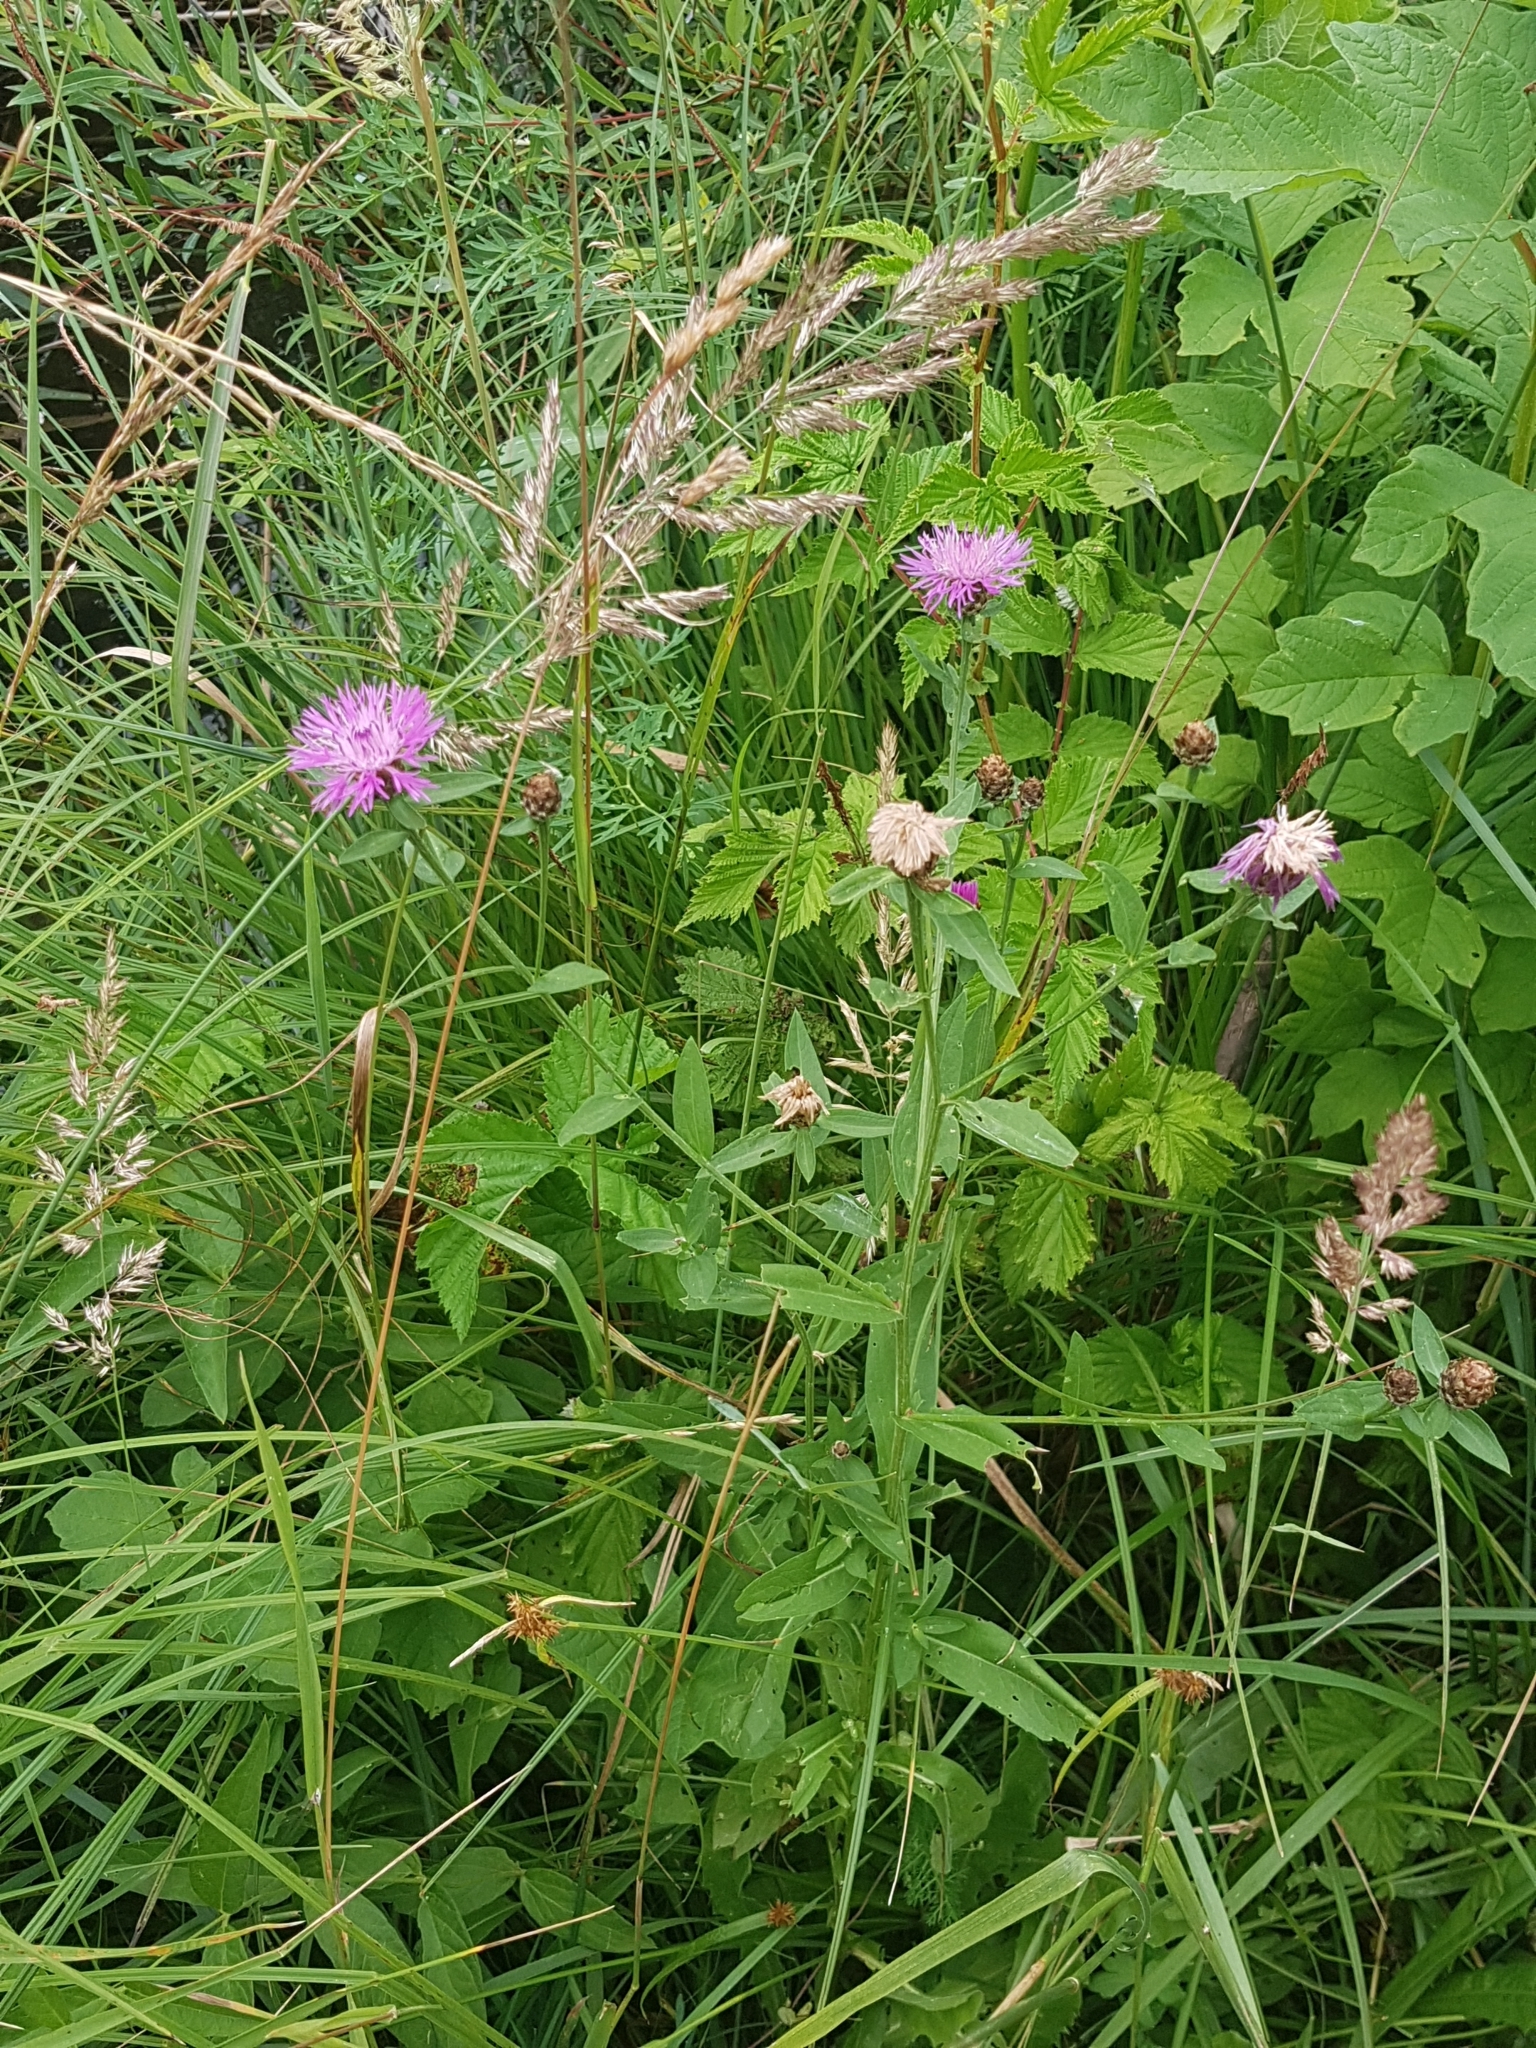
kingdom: Plantae
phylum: Tracheophyta
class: Magnoliopsida
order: Asterales
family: Asteraceae
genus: Centaurea
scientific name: Centaurea jacea
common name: Brown knapweed
